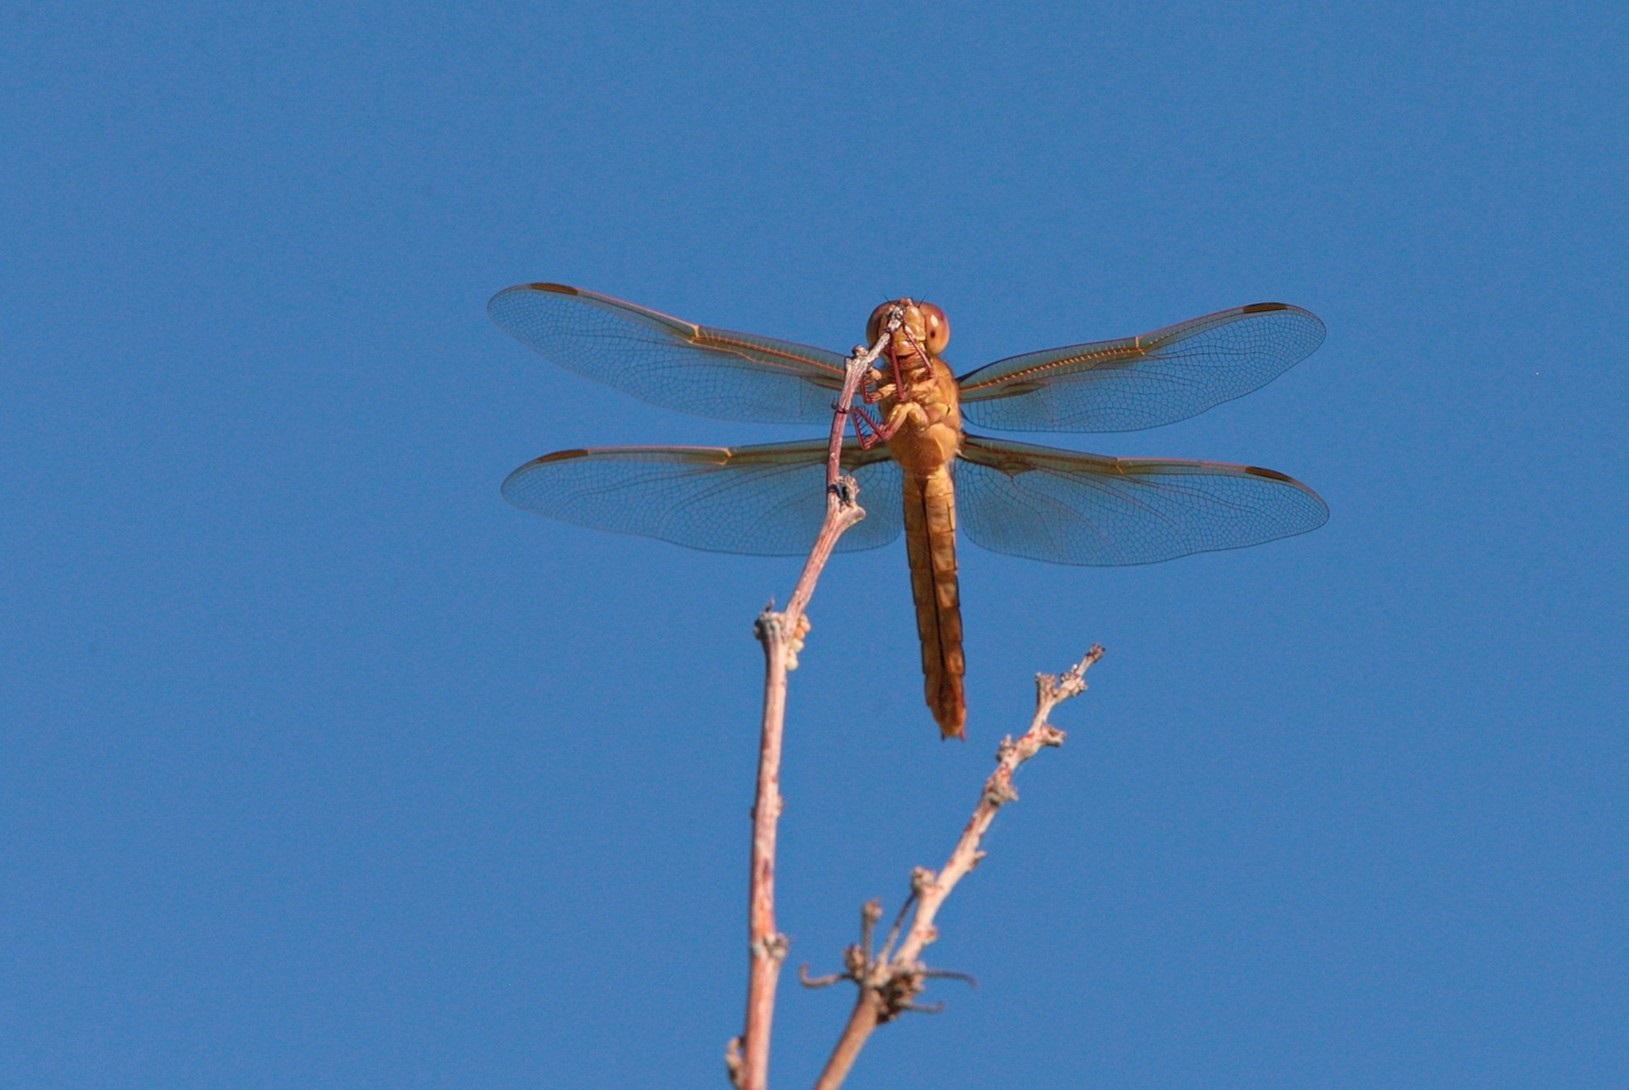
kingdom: Animalia
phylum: Arthropoda
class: Insecta
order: Odonata
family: Libellulidae
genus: Libellula
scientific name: Libellula saturata
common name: Flame skimmer
